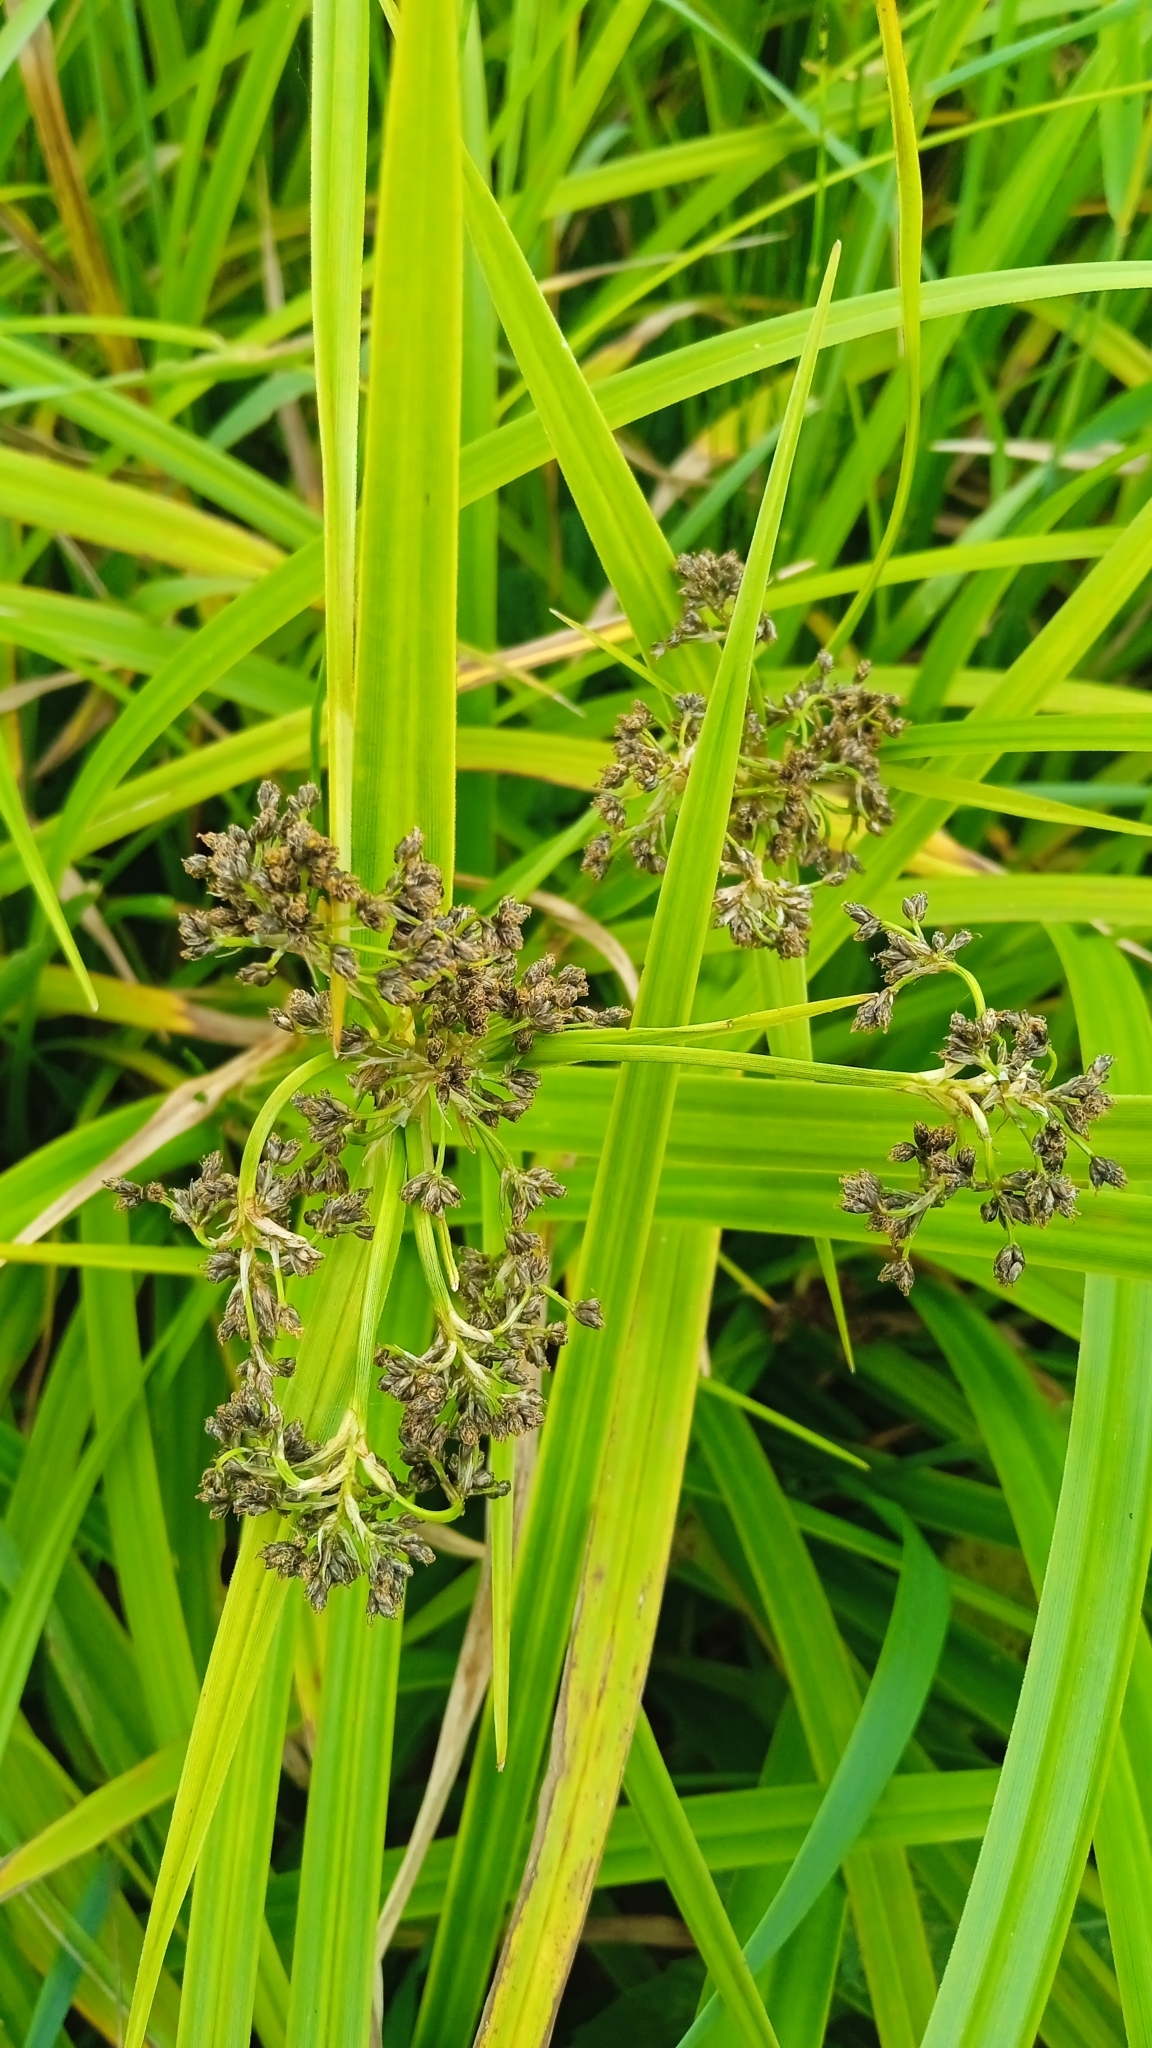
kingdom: Plantae
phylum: Tracheophyta
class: Liliopsida
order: Poales
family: Cyperaceae
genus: Scirpus
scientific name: Scirpus sylvaticus
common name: Wood club-rush
